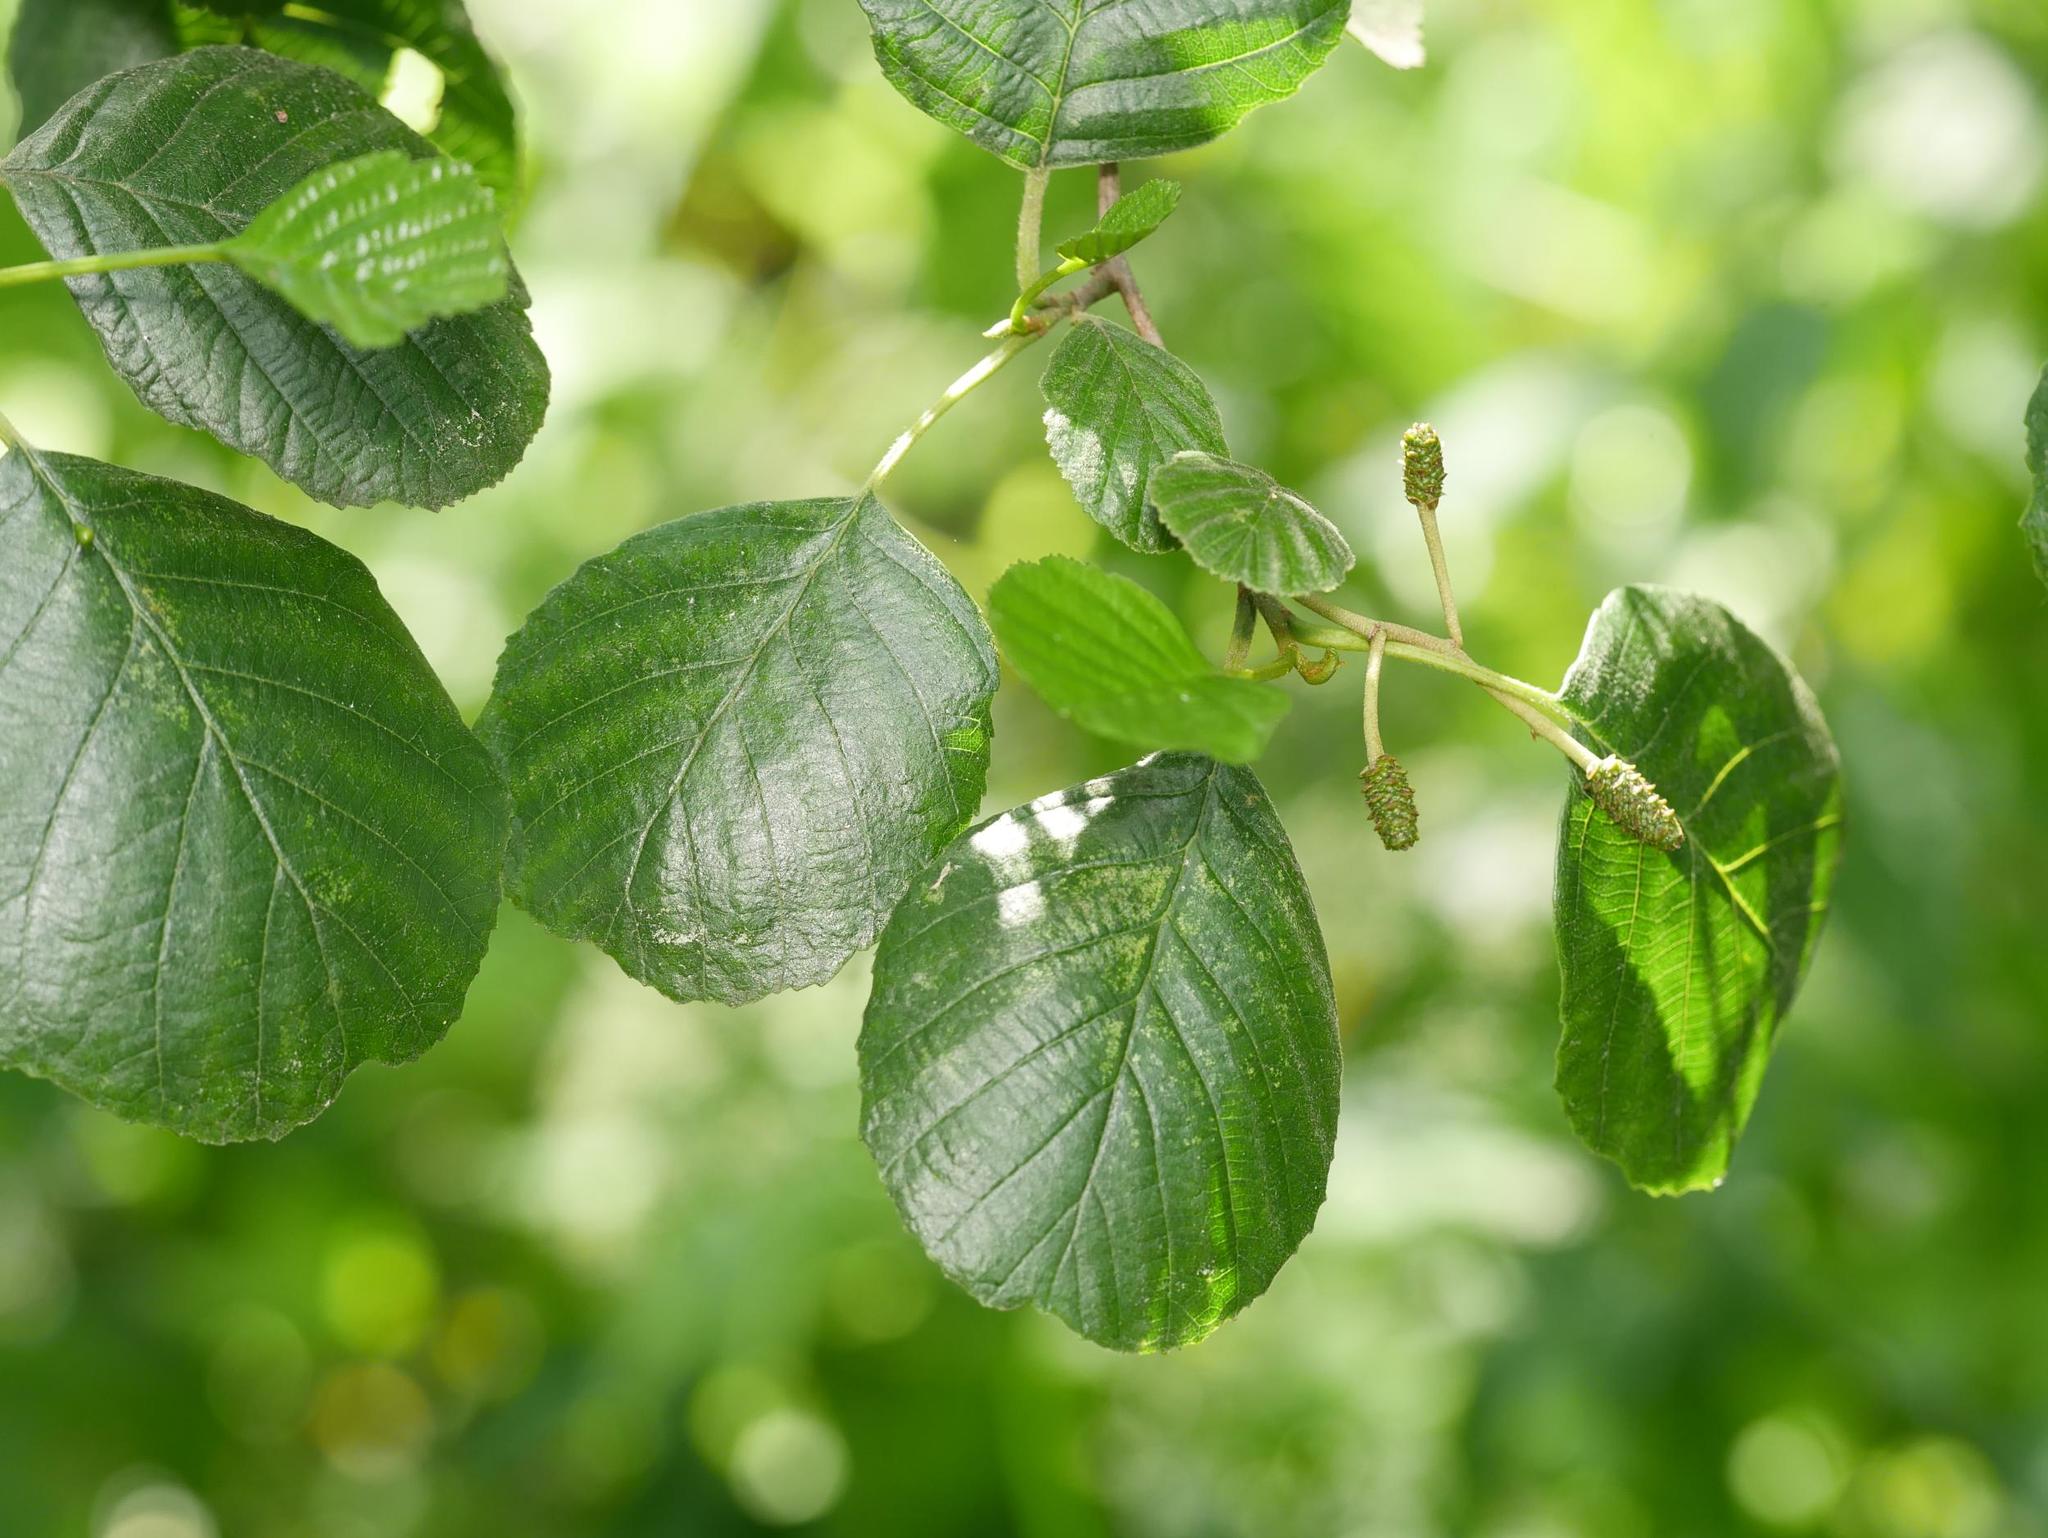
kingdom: Plantae
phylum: Tracheophyta
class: Magnoliopsida
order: Fagales
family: Betulaceae
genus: Alnus
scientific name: Alnus glutinosa
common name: Black alder
